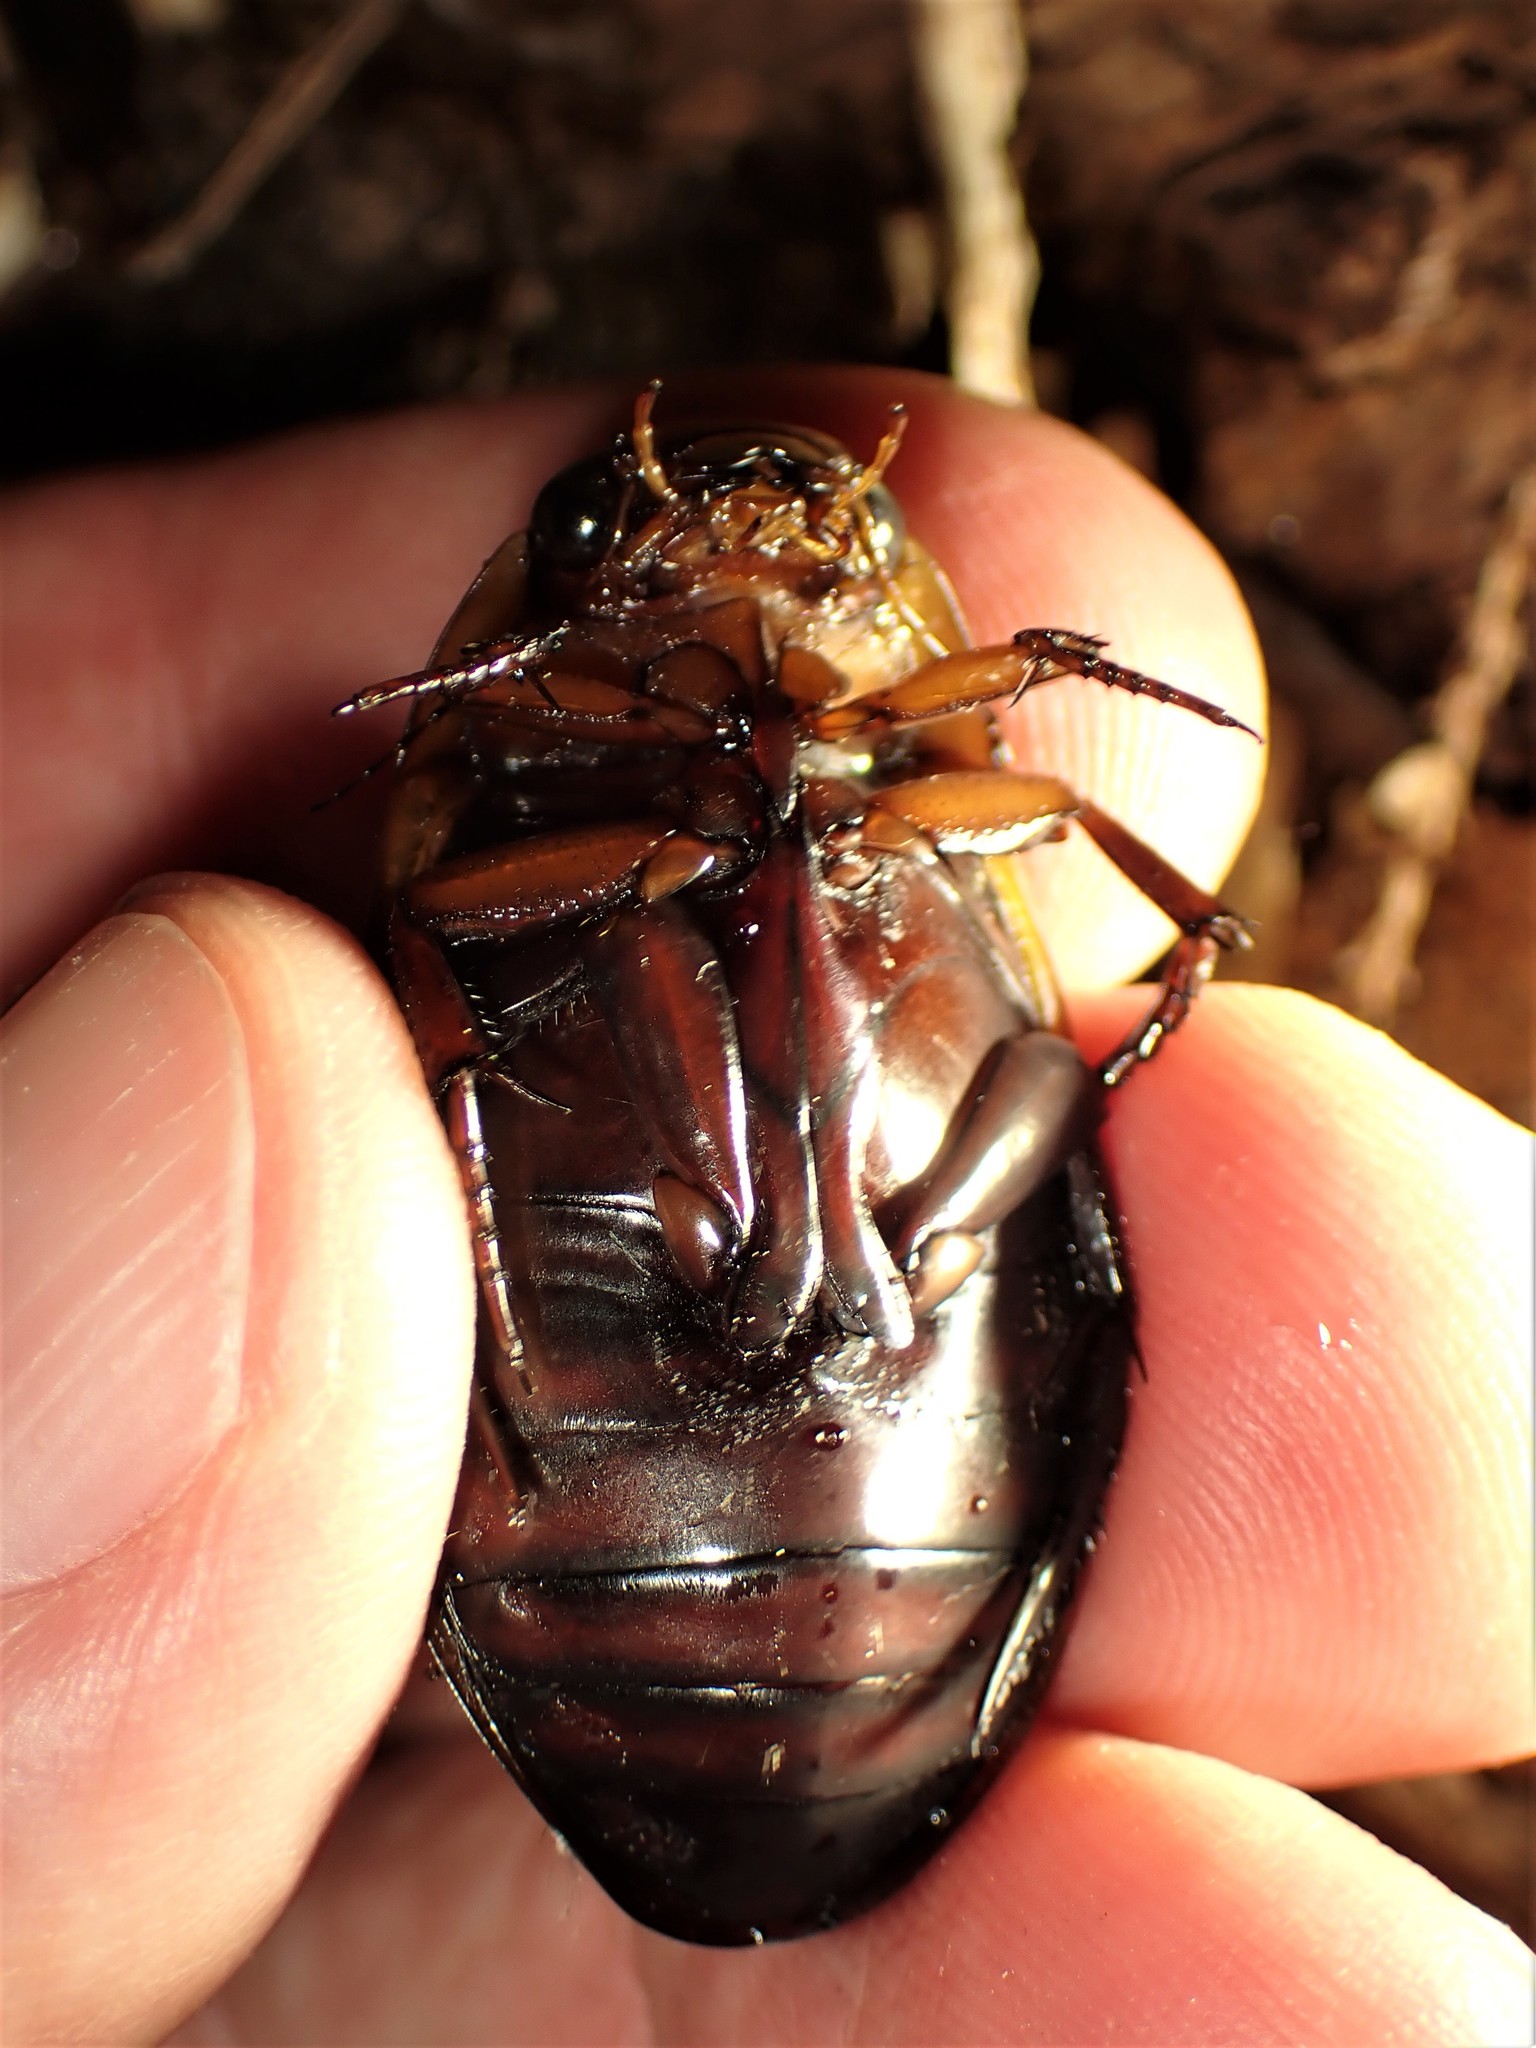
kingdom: Animalia
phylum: Arthropoda
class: Insecta
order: Coleoptera
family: Dytiscidae
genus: Dytiscus
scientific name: Dytiscus verticalis
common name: Vertical diving beetle
